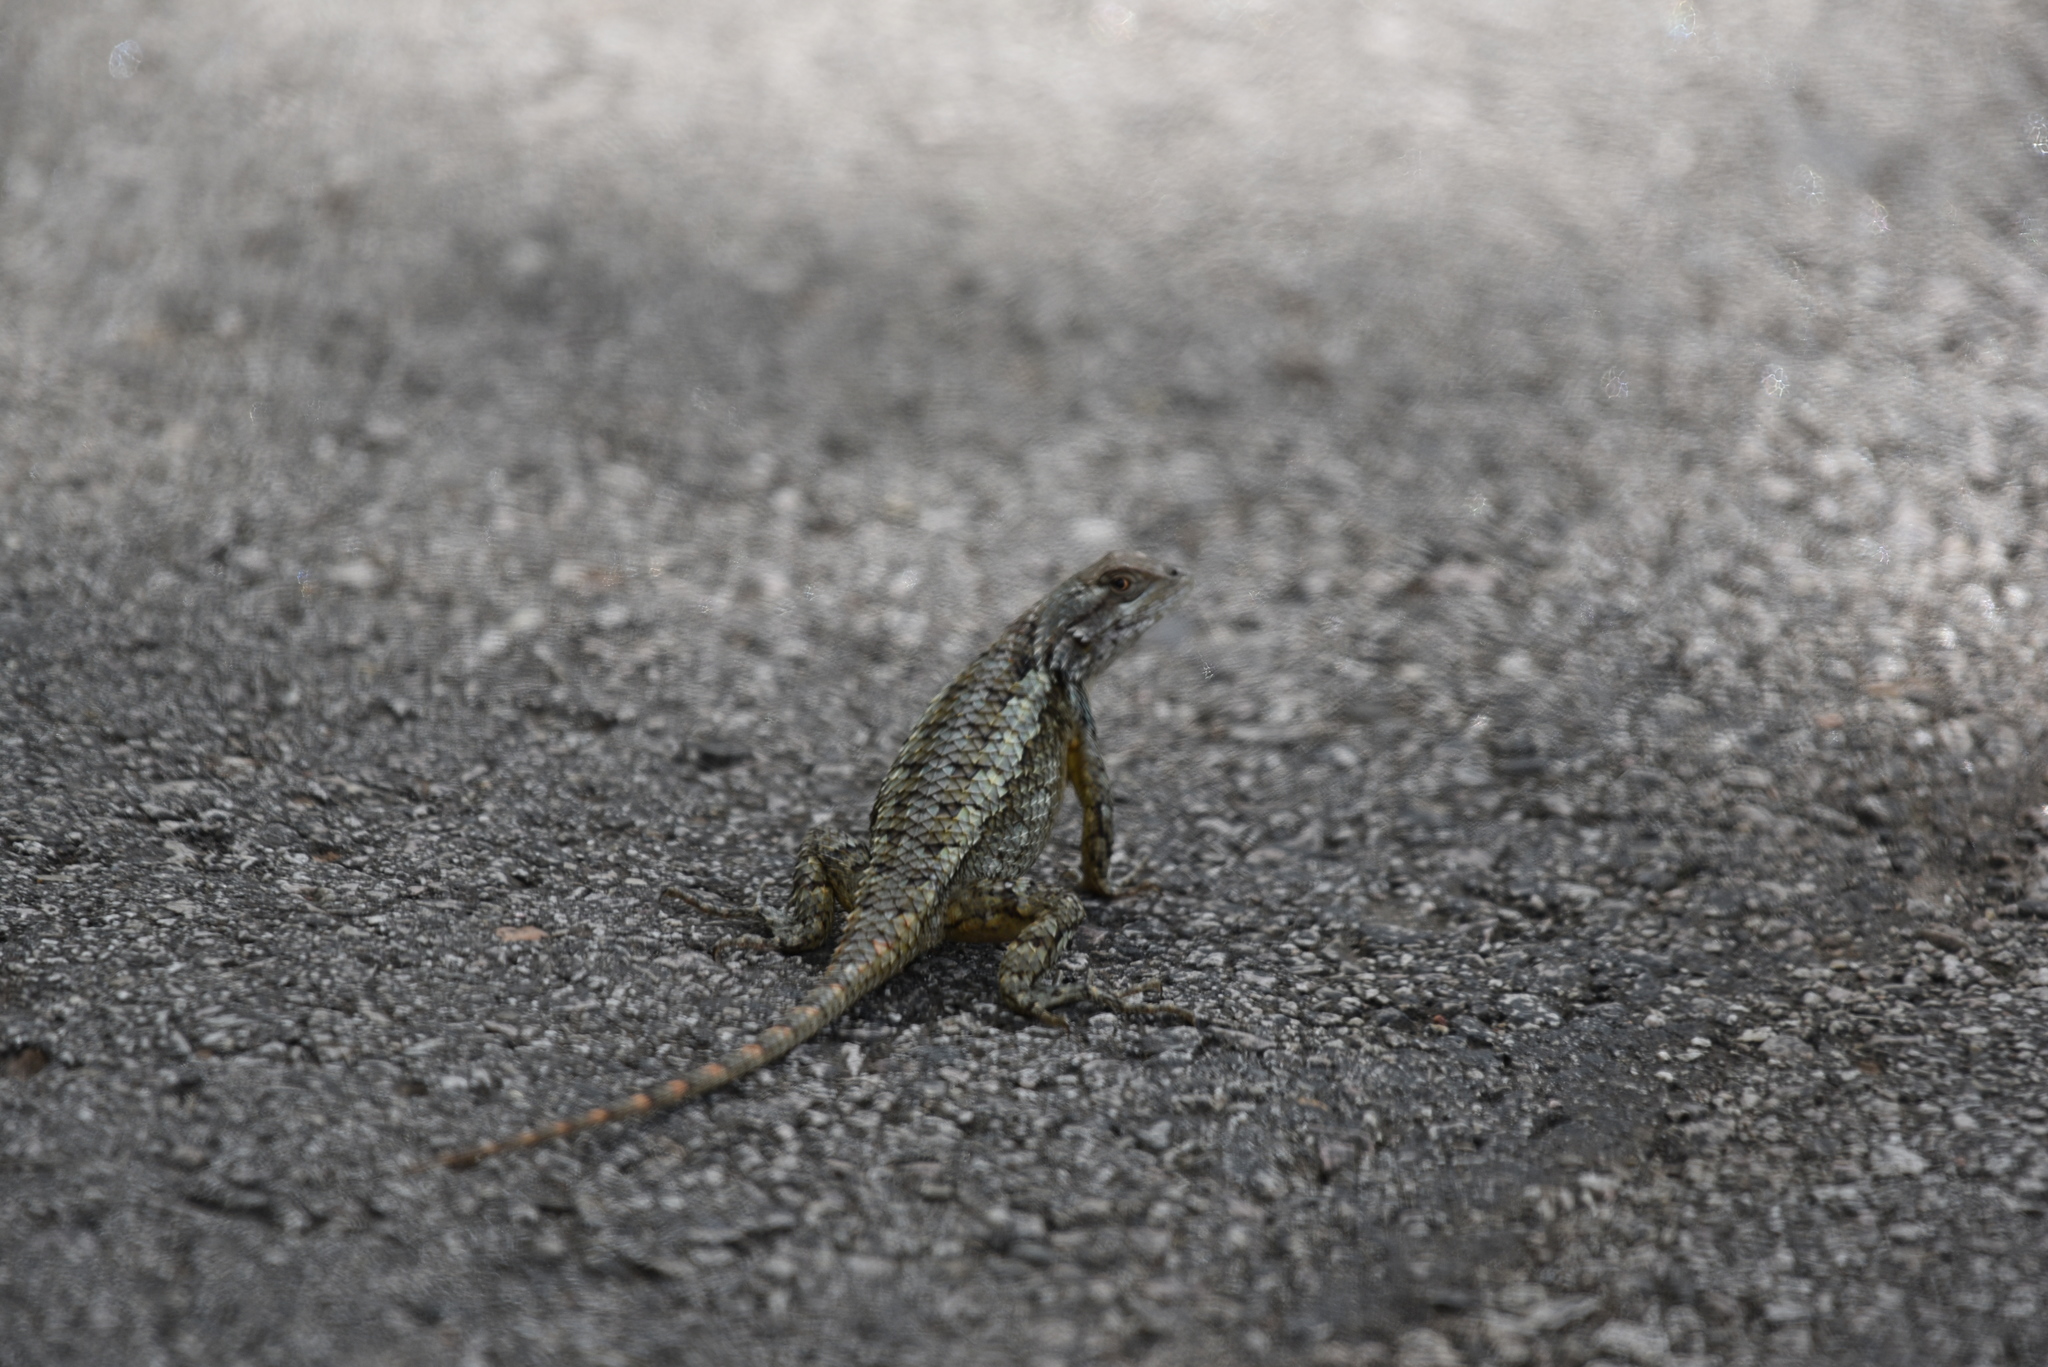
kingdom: Animalia
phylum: Chordata
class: Squamata
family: Phrynosomatidae
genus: Sceloporus
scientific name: Sceloporus olivaceus
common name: Texas spiny lizard
